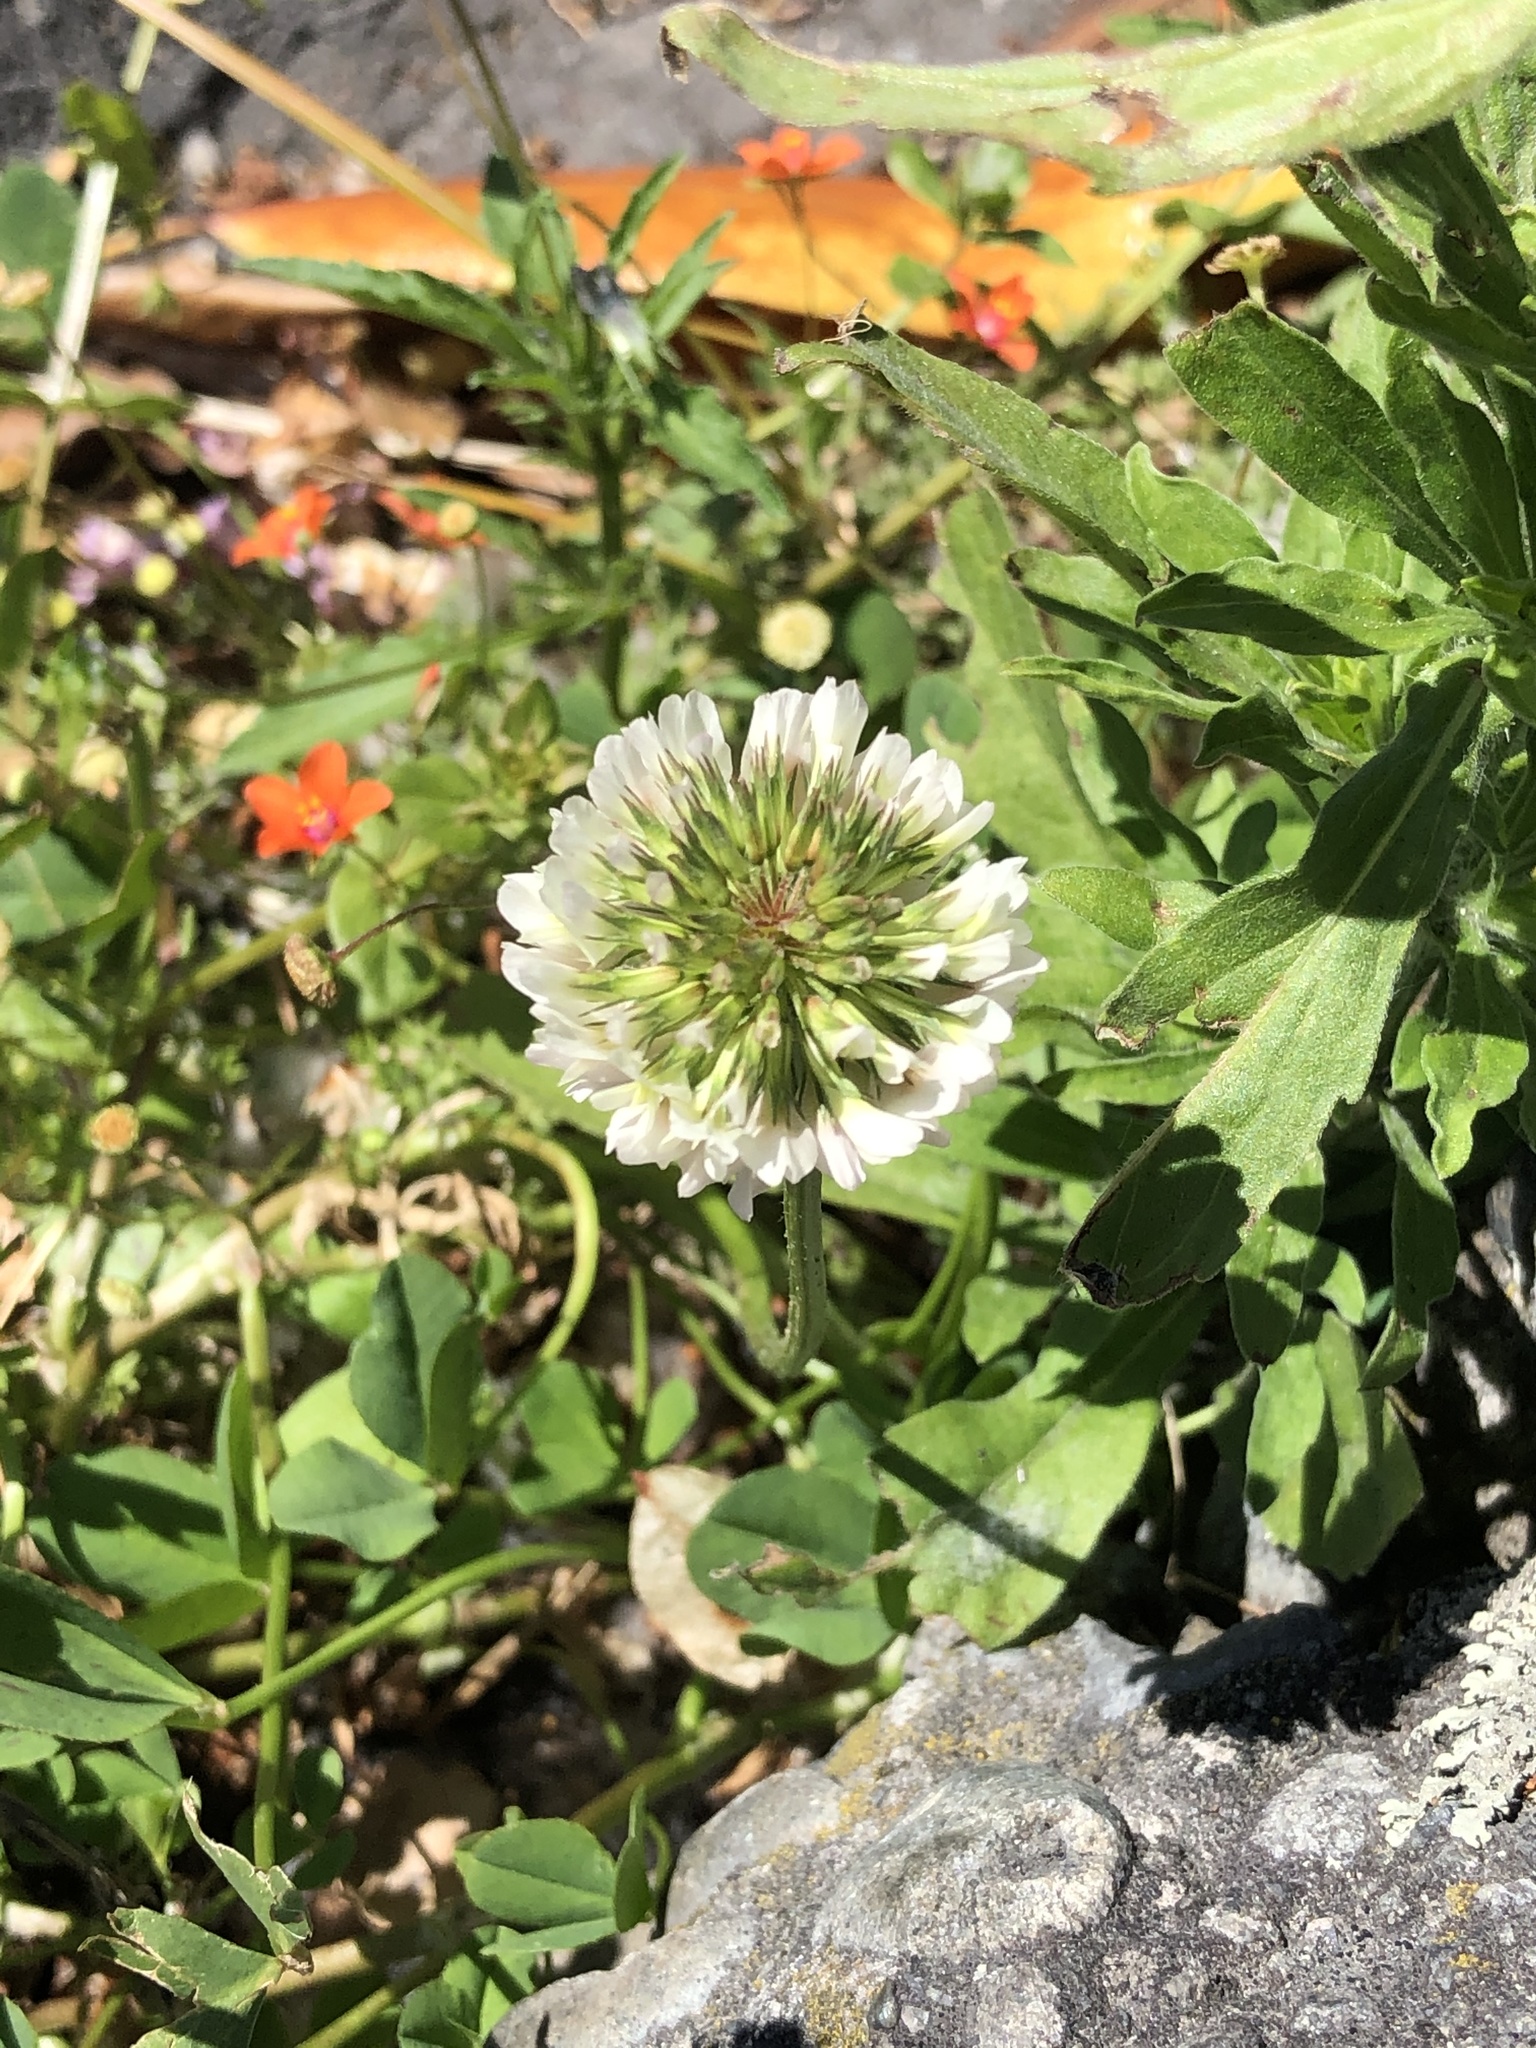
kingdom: Plantae
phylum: Tracheophyta
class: Magnoliopsida
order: Fabales
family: Fabaceae
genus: Trifolium
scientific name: Trifolium repens
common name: White clover
